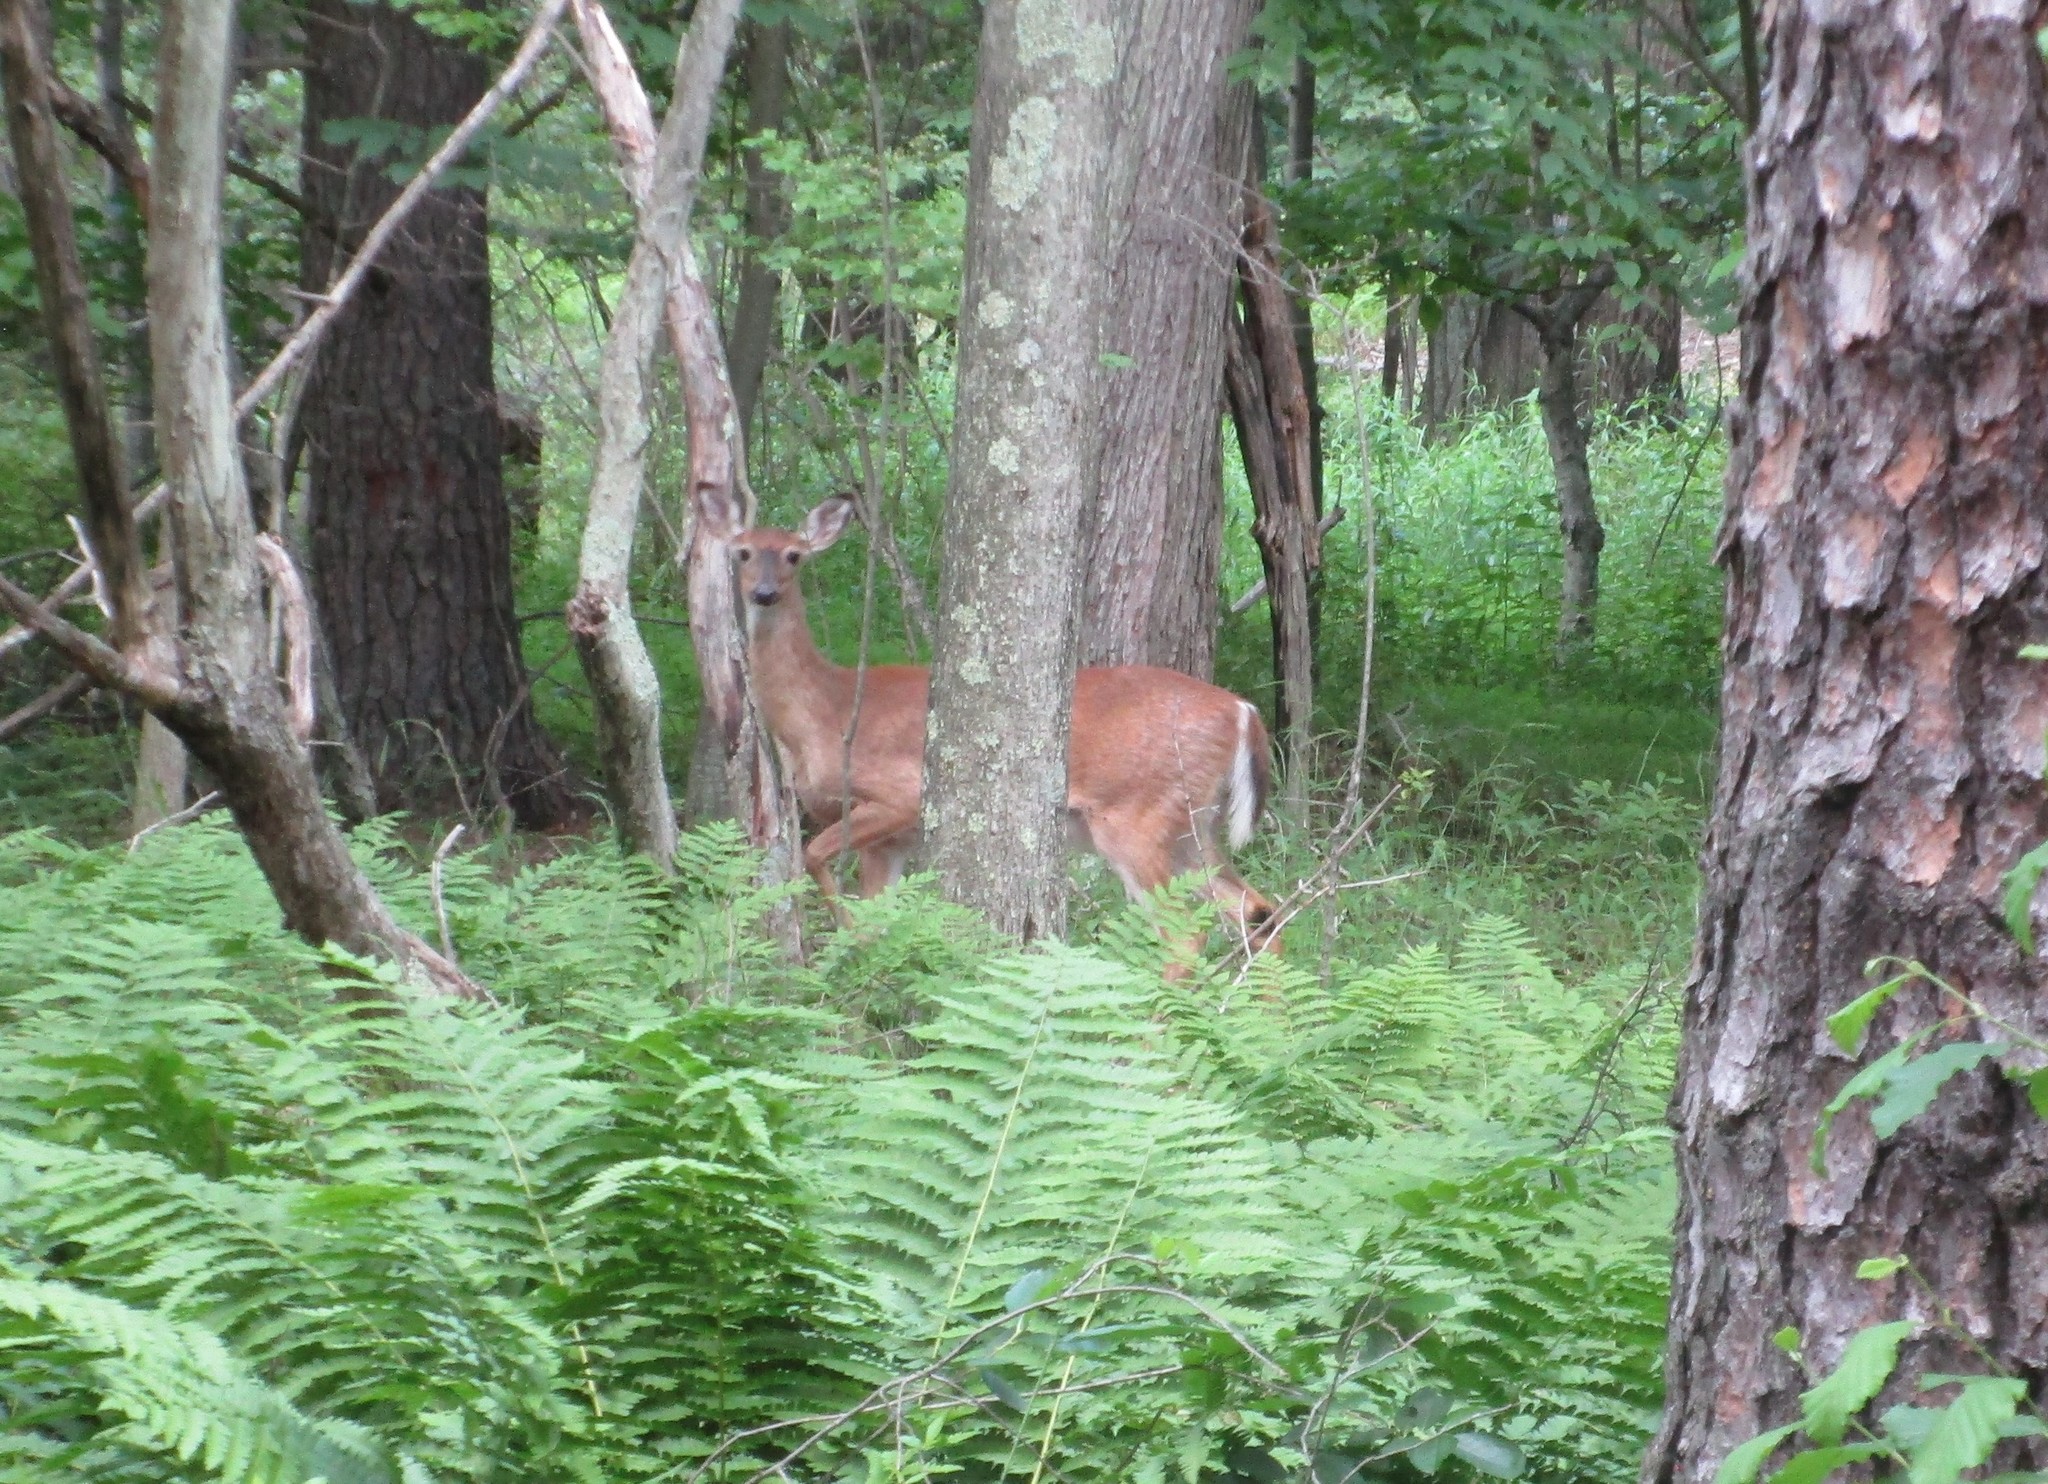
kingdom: Animalia
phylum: Chordata
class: Mammalia
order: Artiodactyla
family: Cervidae
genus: Odocoileus
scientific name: Odocoileus virginianus
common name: White-tailed deer
